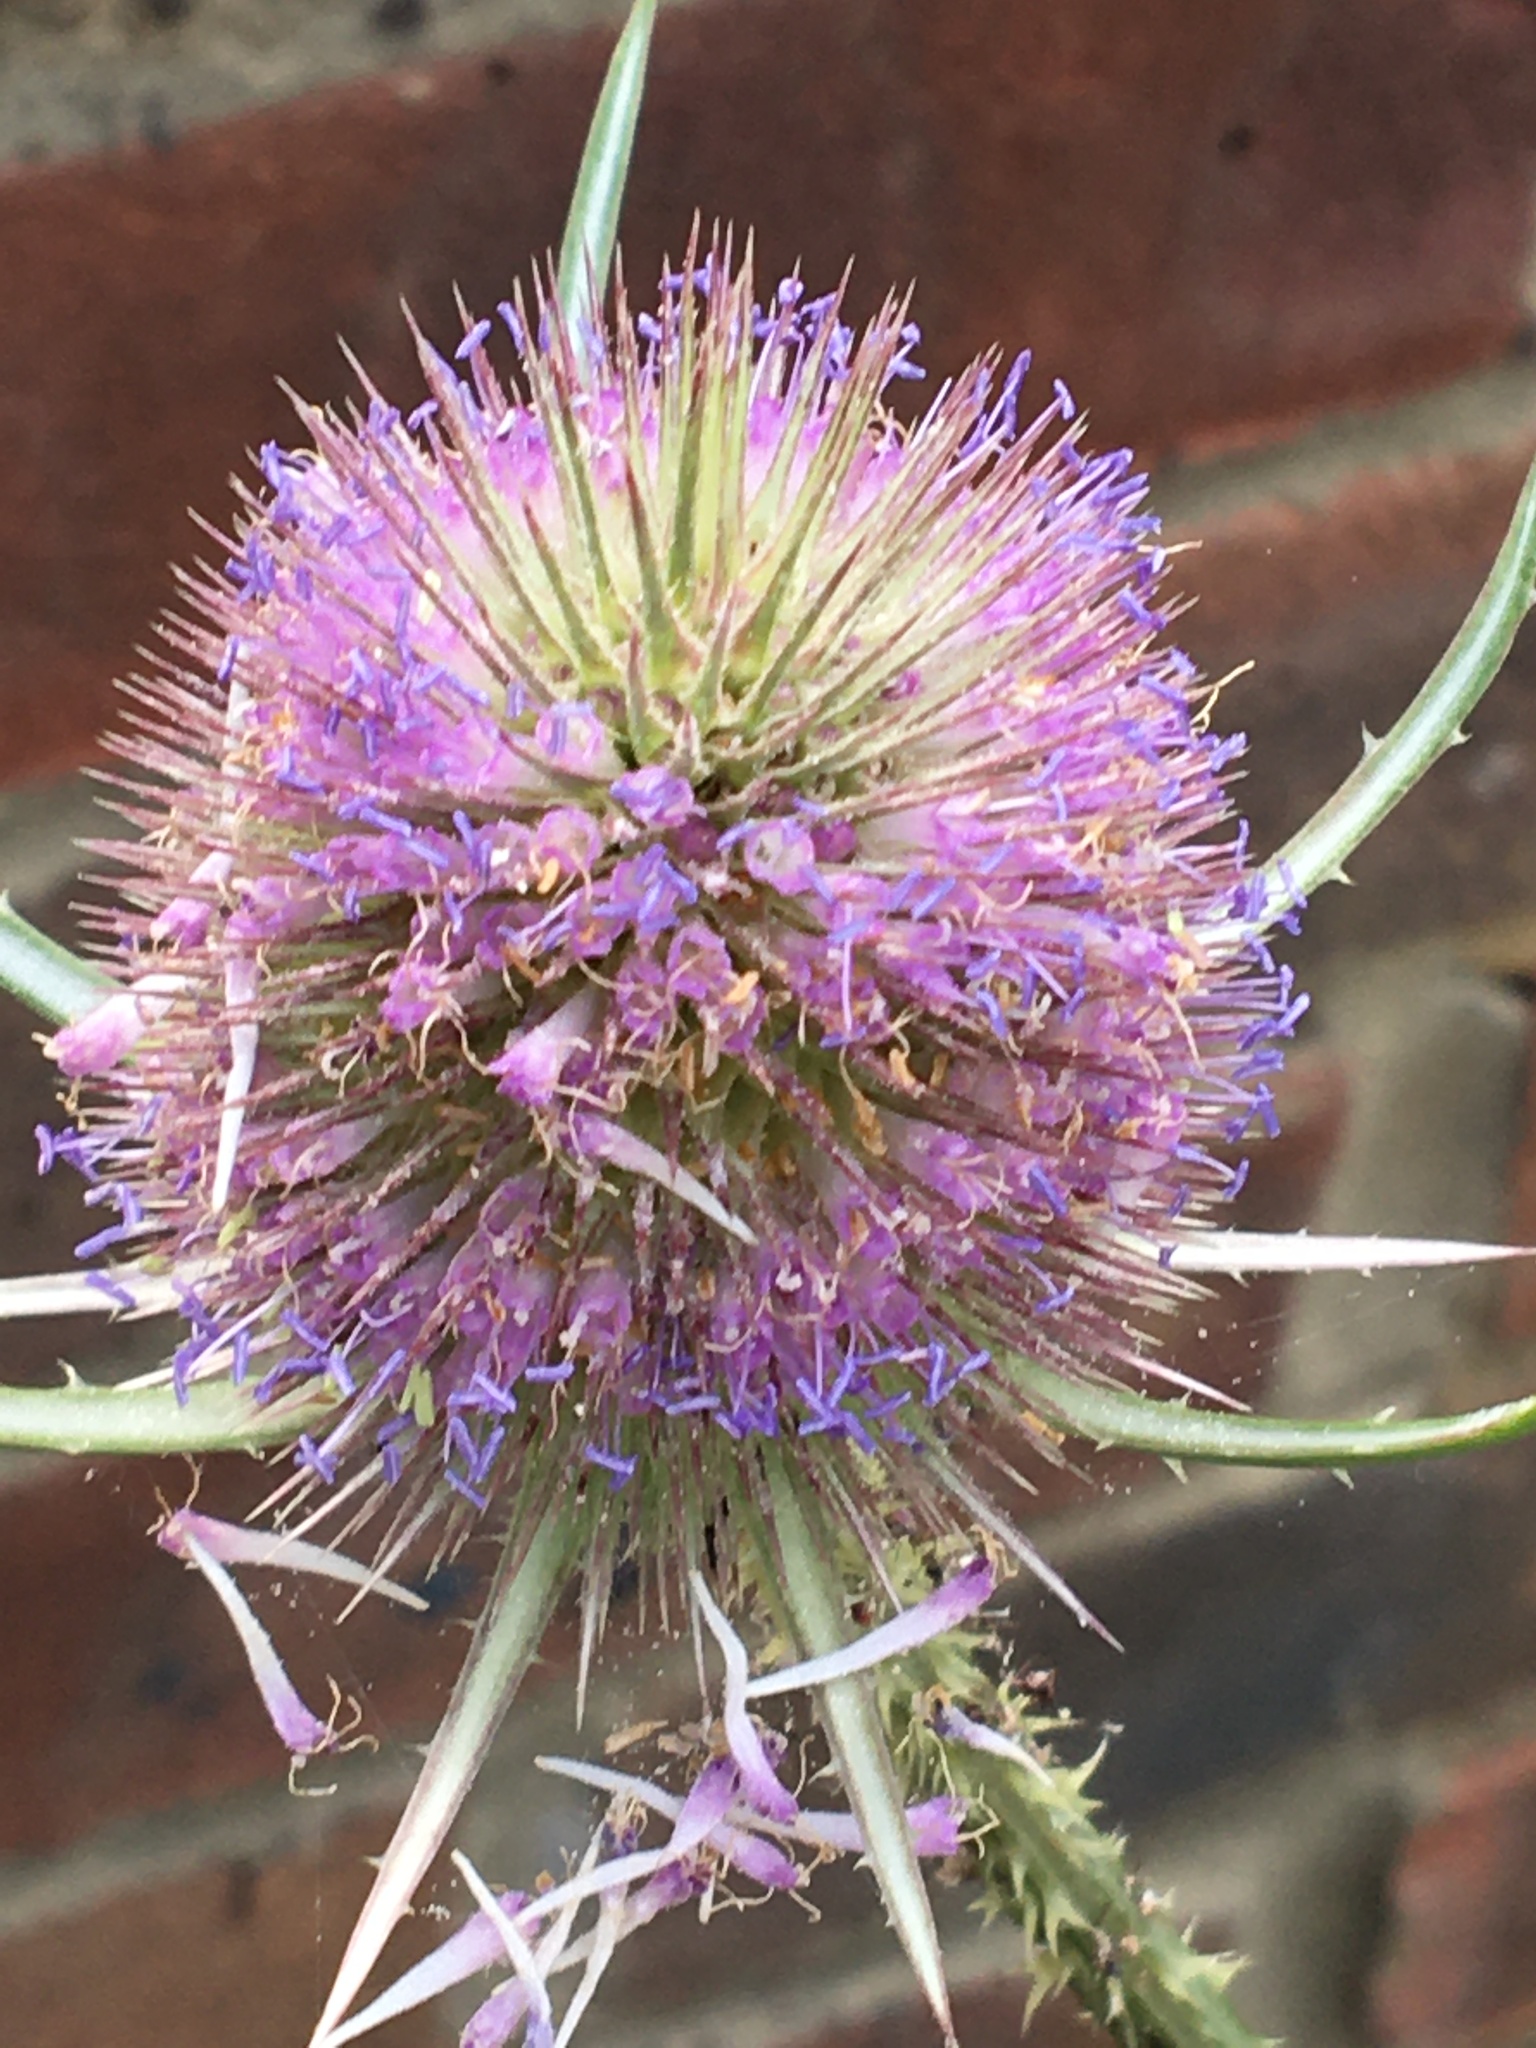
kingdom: Plantae
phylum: Tracheophyta
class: Magnoliopsida
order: Dipsacales
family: Caprifoliaceae
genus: Dipsacus
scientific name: Dipsacus fullonum
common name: Teasel
